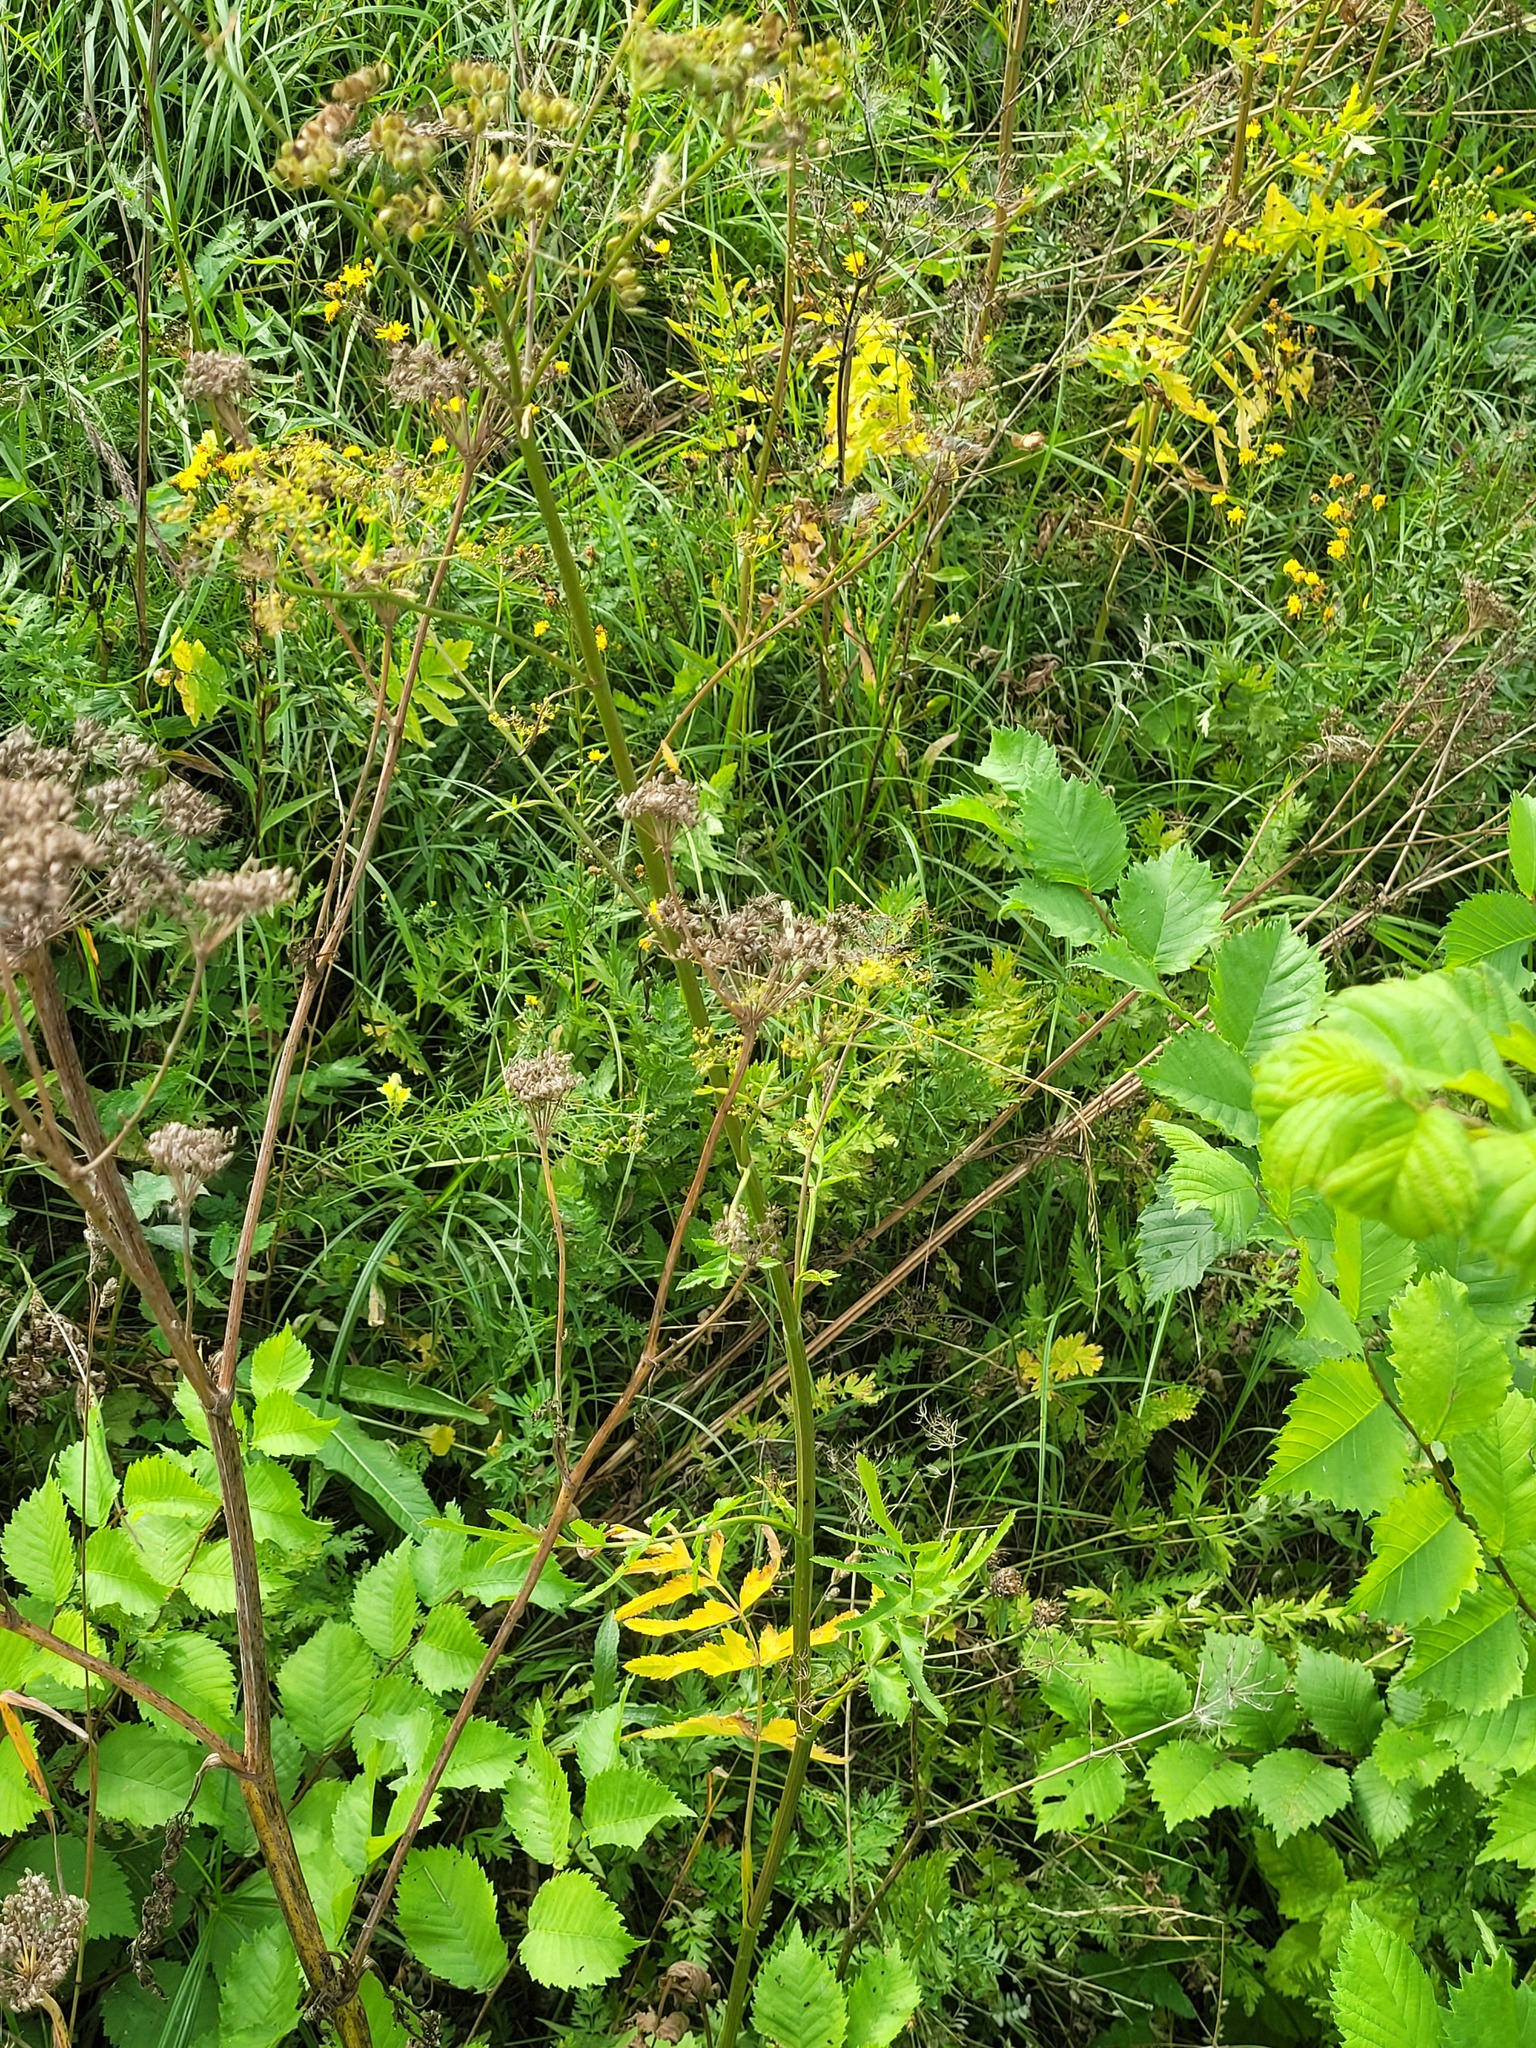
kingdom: Plantae
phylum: Tracheophyta
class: Magnoliopsida
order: Apiales
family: Apiaceae
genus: Pastinaca
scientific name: Pastinaca sativa
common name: Wild parsnip
